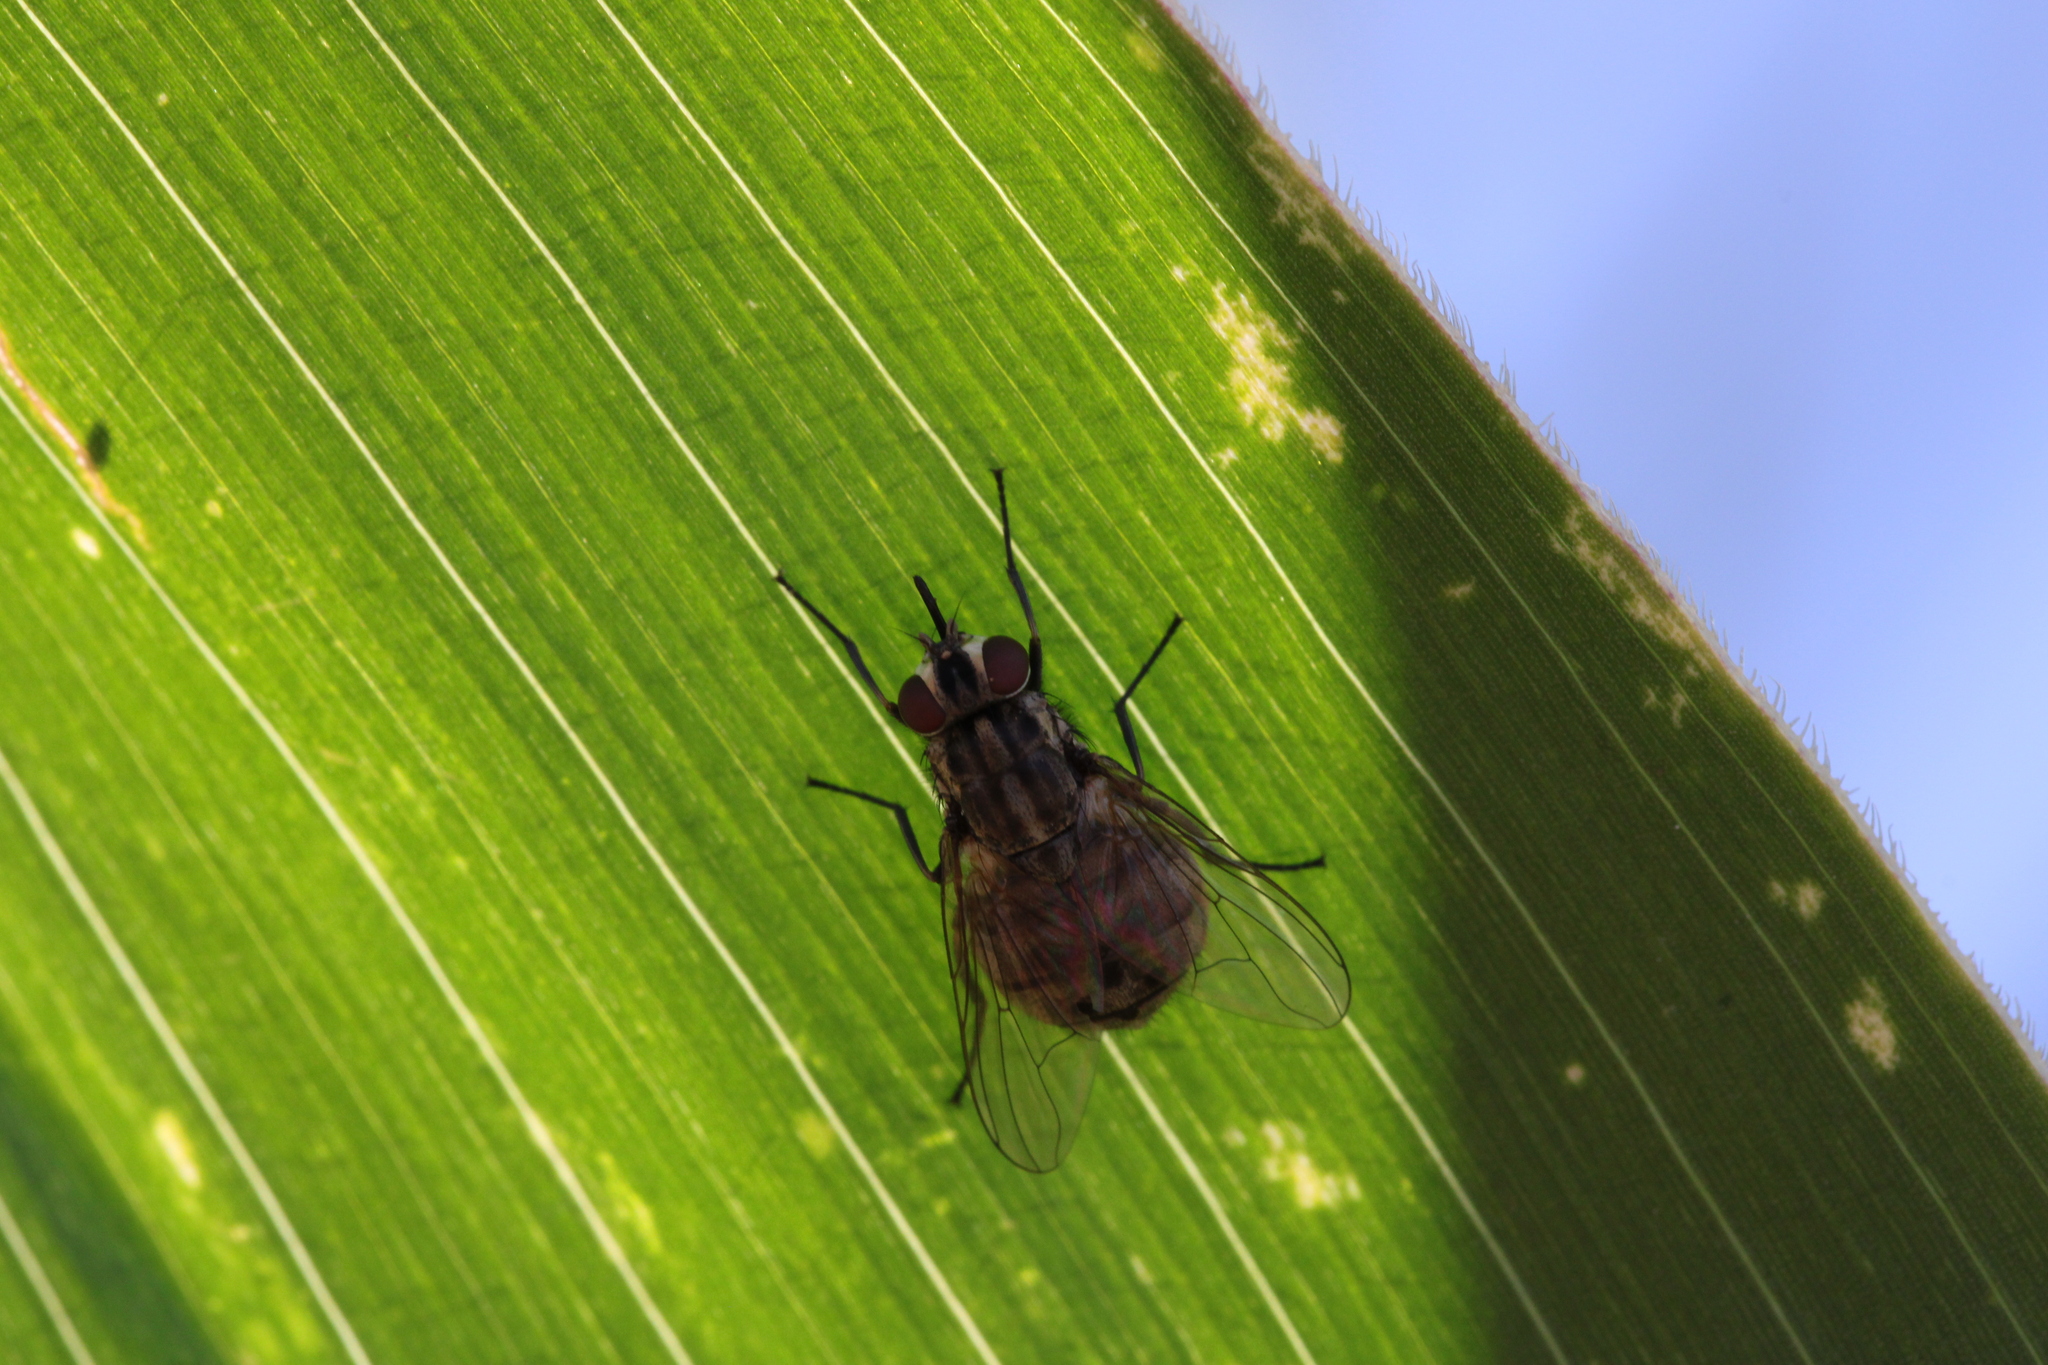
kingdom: Animalia
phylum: Arthropoda
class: Insecta
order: Diptera
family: Muscidae
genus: Stomoxys
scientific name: Stomoxys calcitrans
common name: Stable fly
